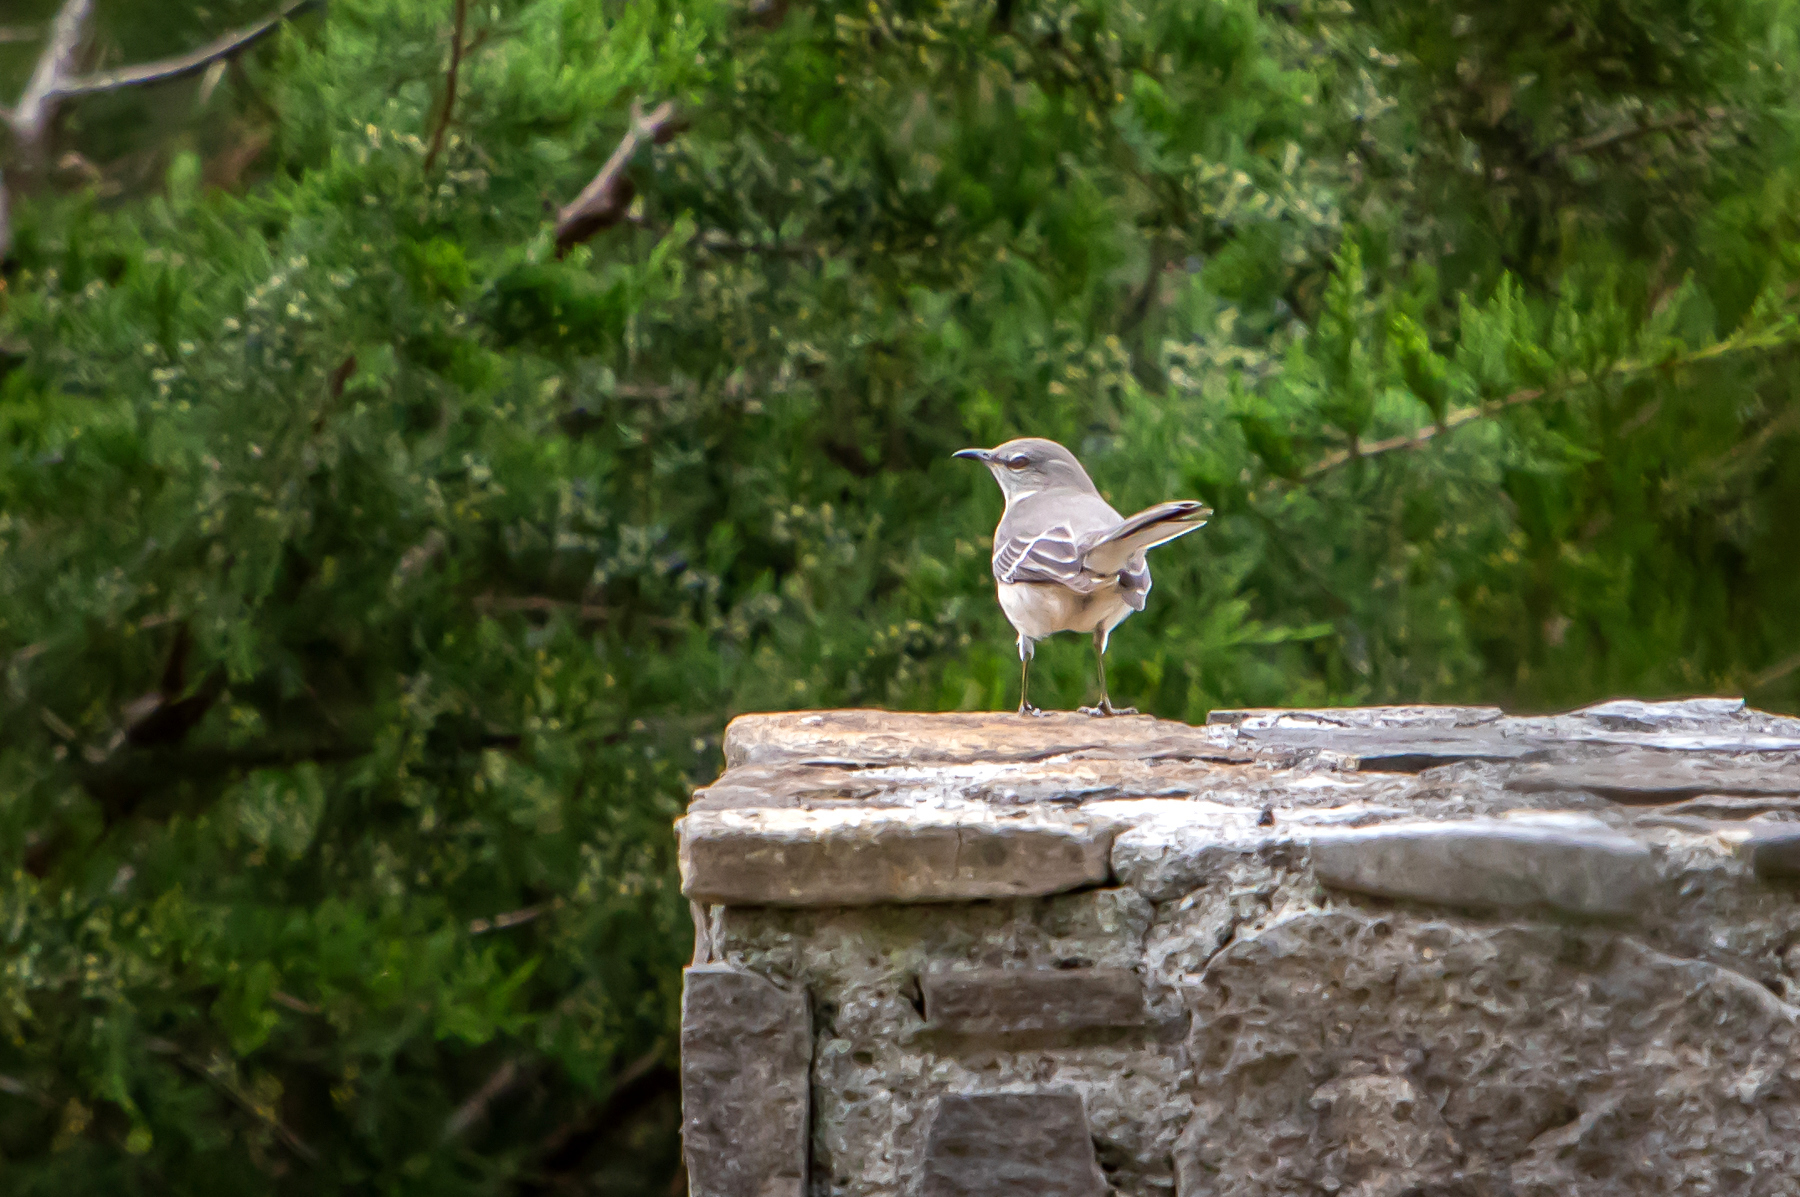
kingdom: Animalia
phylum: Chordata
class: Aves
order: Passeriformes
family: Mimidae
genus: Mimus
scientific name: Mimus polyglottos
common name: Northern mockingbird
